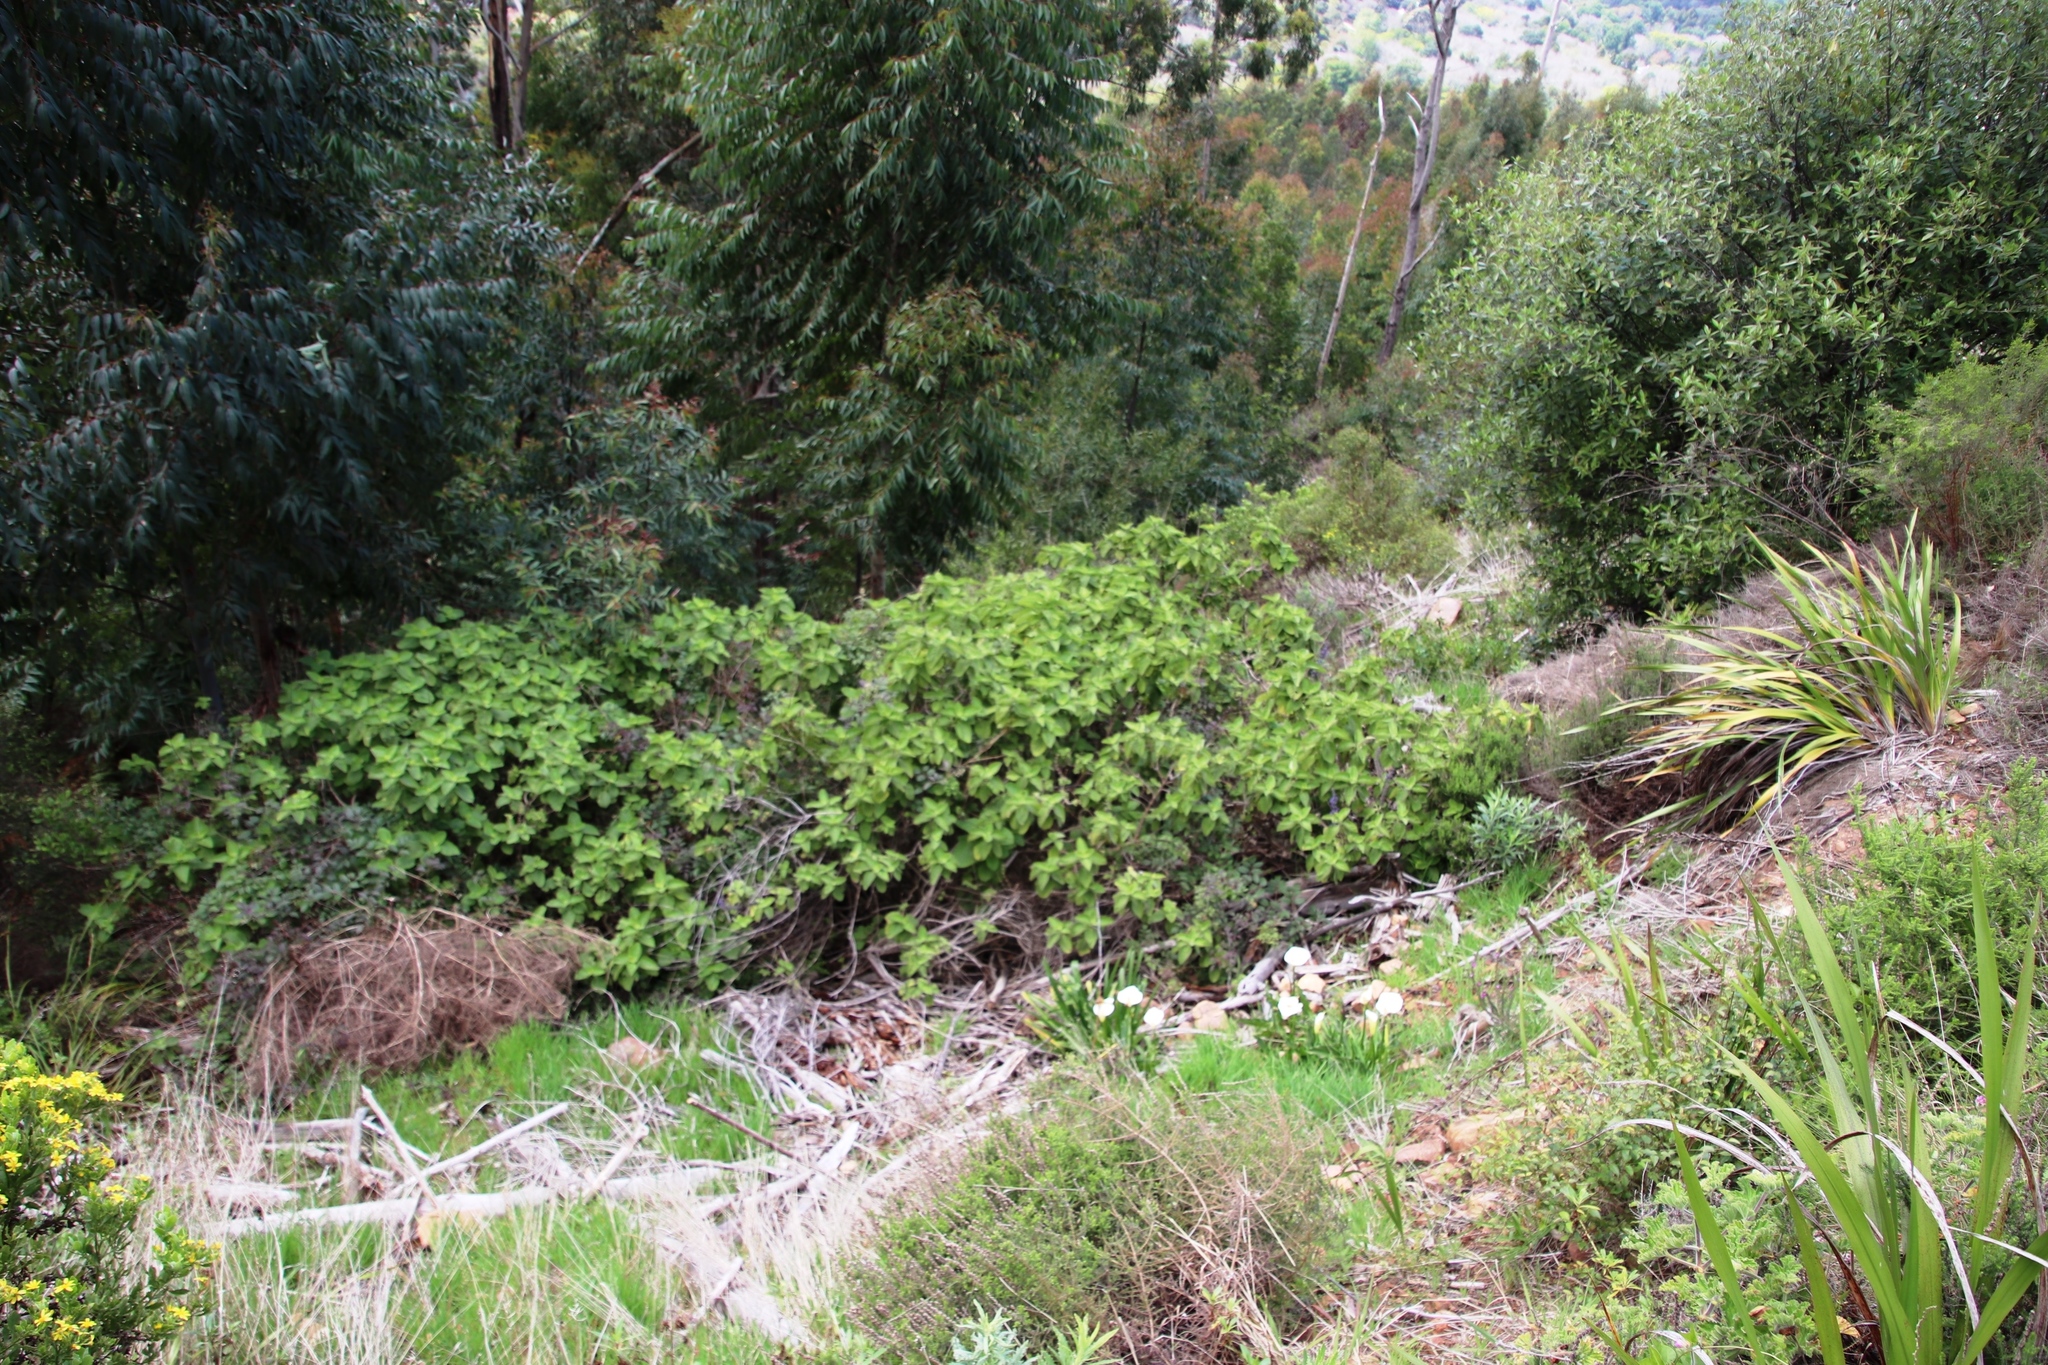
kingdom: Plantae
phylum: Tracheophyta
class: Magnoliopsida
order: Lamiales
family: Lamiaceae
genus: Coleus
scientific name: Coleus barbatus
